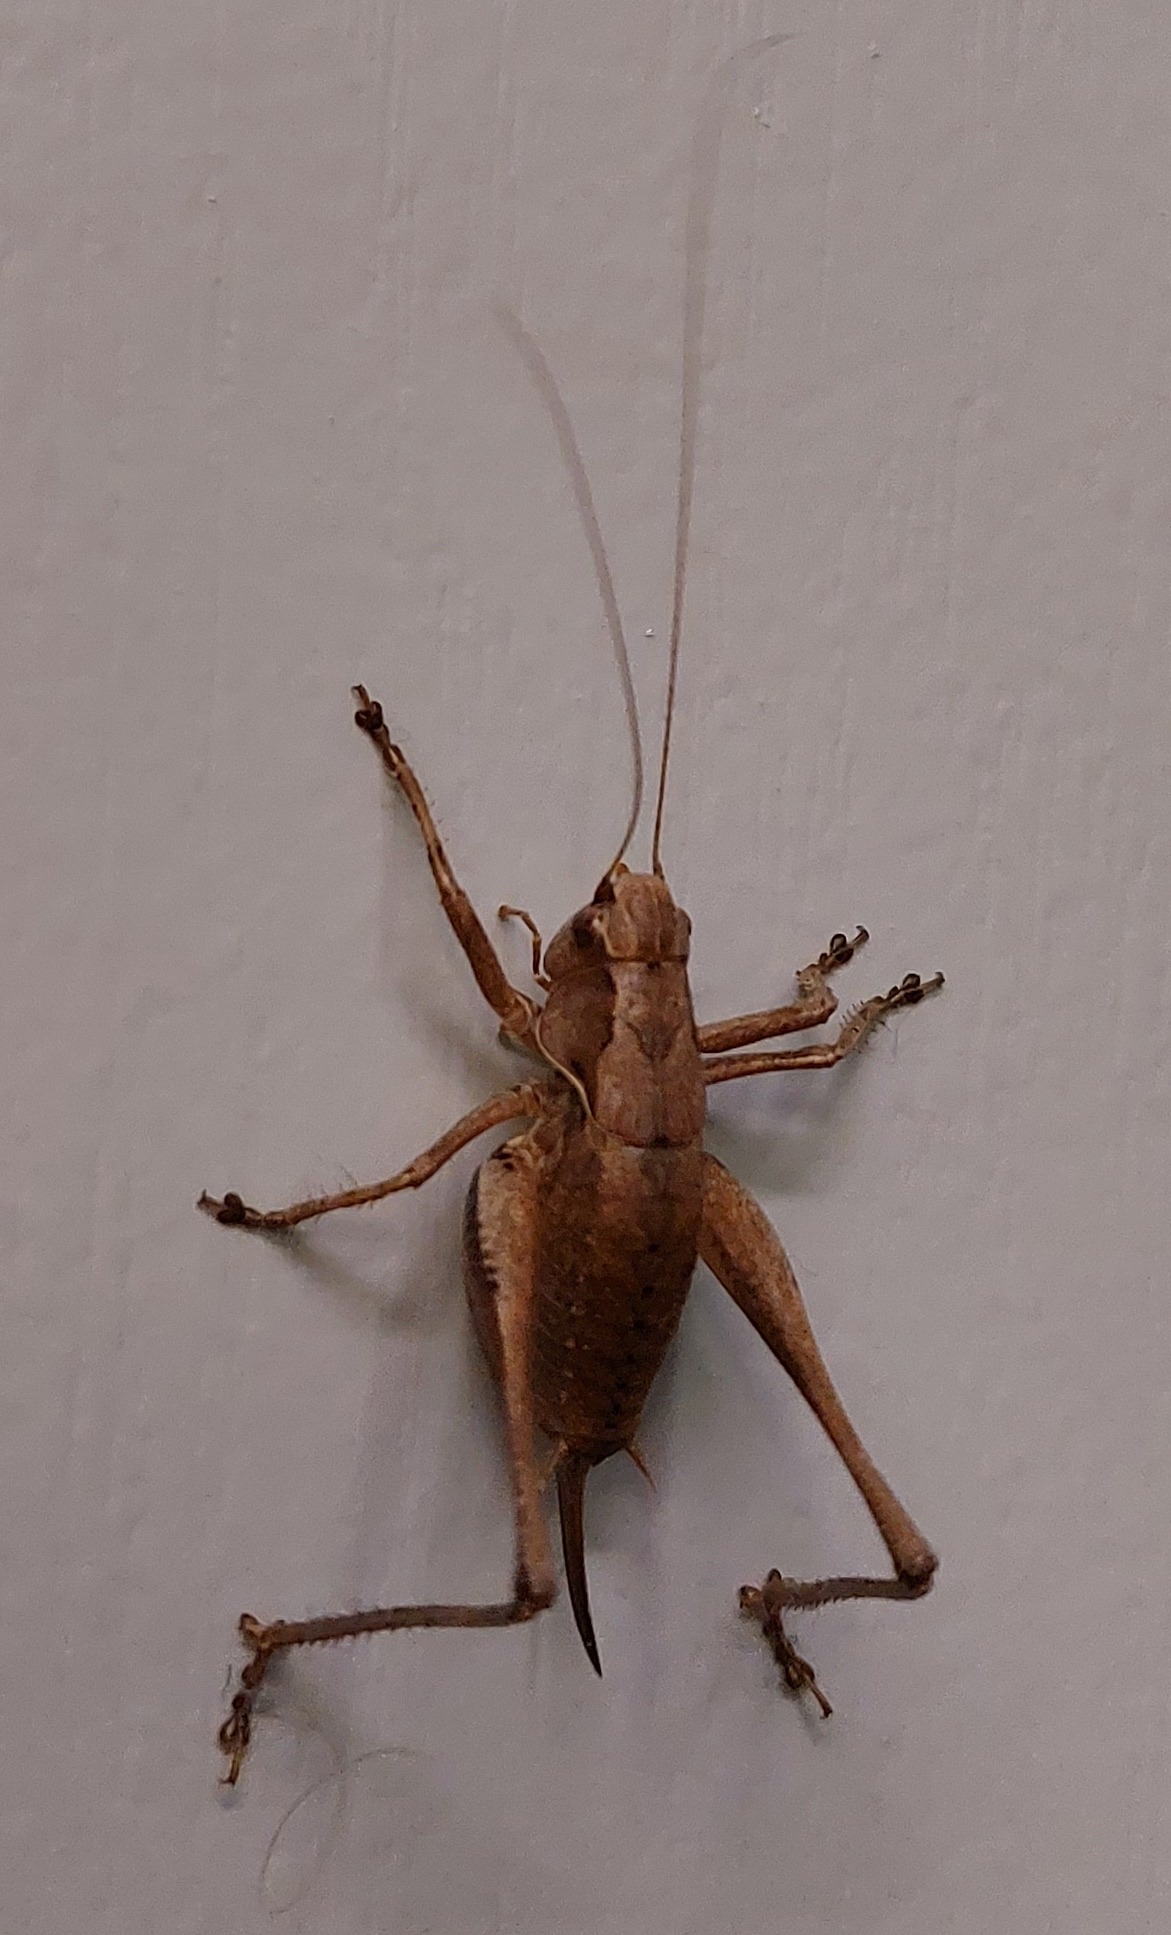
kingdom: Animalia
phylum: Arthropoda
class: Insecta
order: Orthoptera
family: Tettigoniidae
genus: Pholidoptera
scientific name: Pholidoptera griseoaptera
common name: Dark bush-cricket
